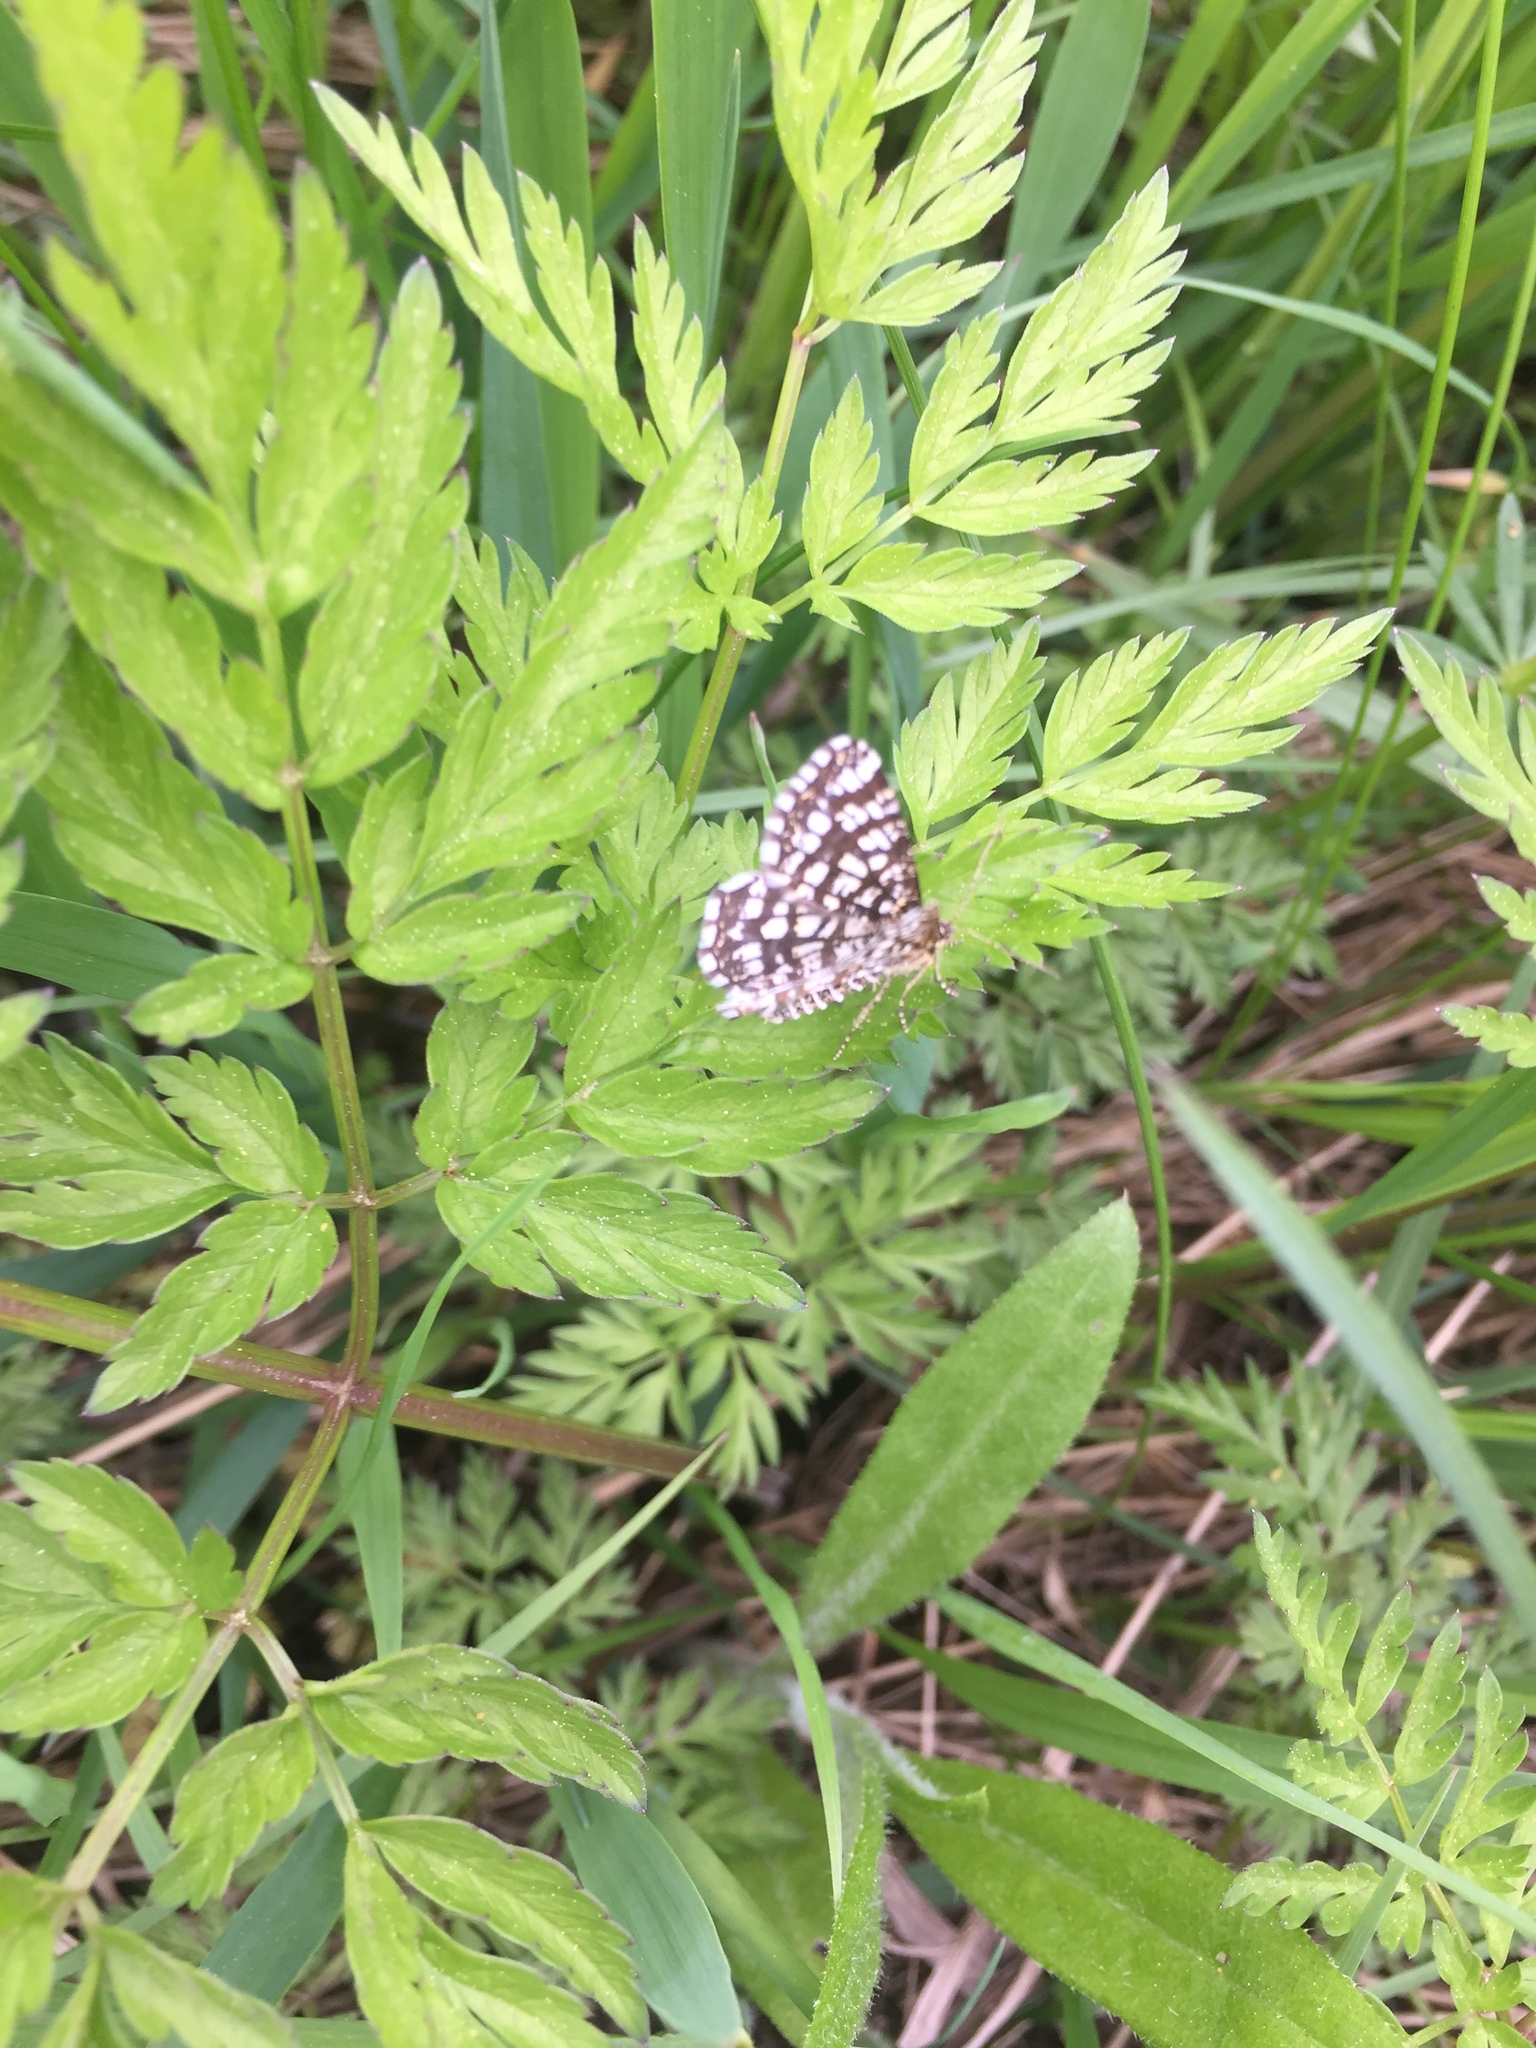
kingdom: Animalia
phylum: Arthropoda
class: Insecta
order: Lepidoptera
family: Geometridae
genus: Chiasmia
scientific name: Chiasmia clathrata
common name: Latticed heath
